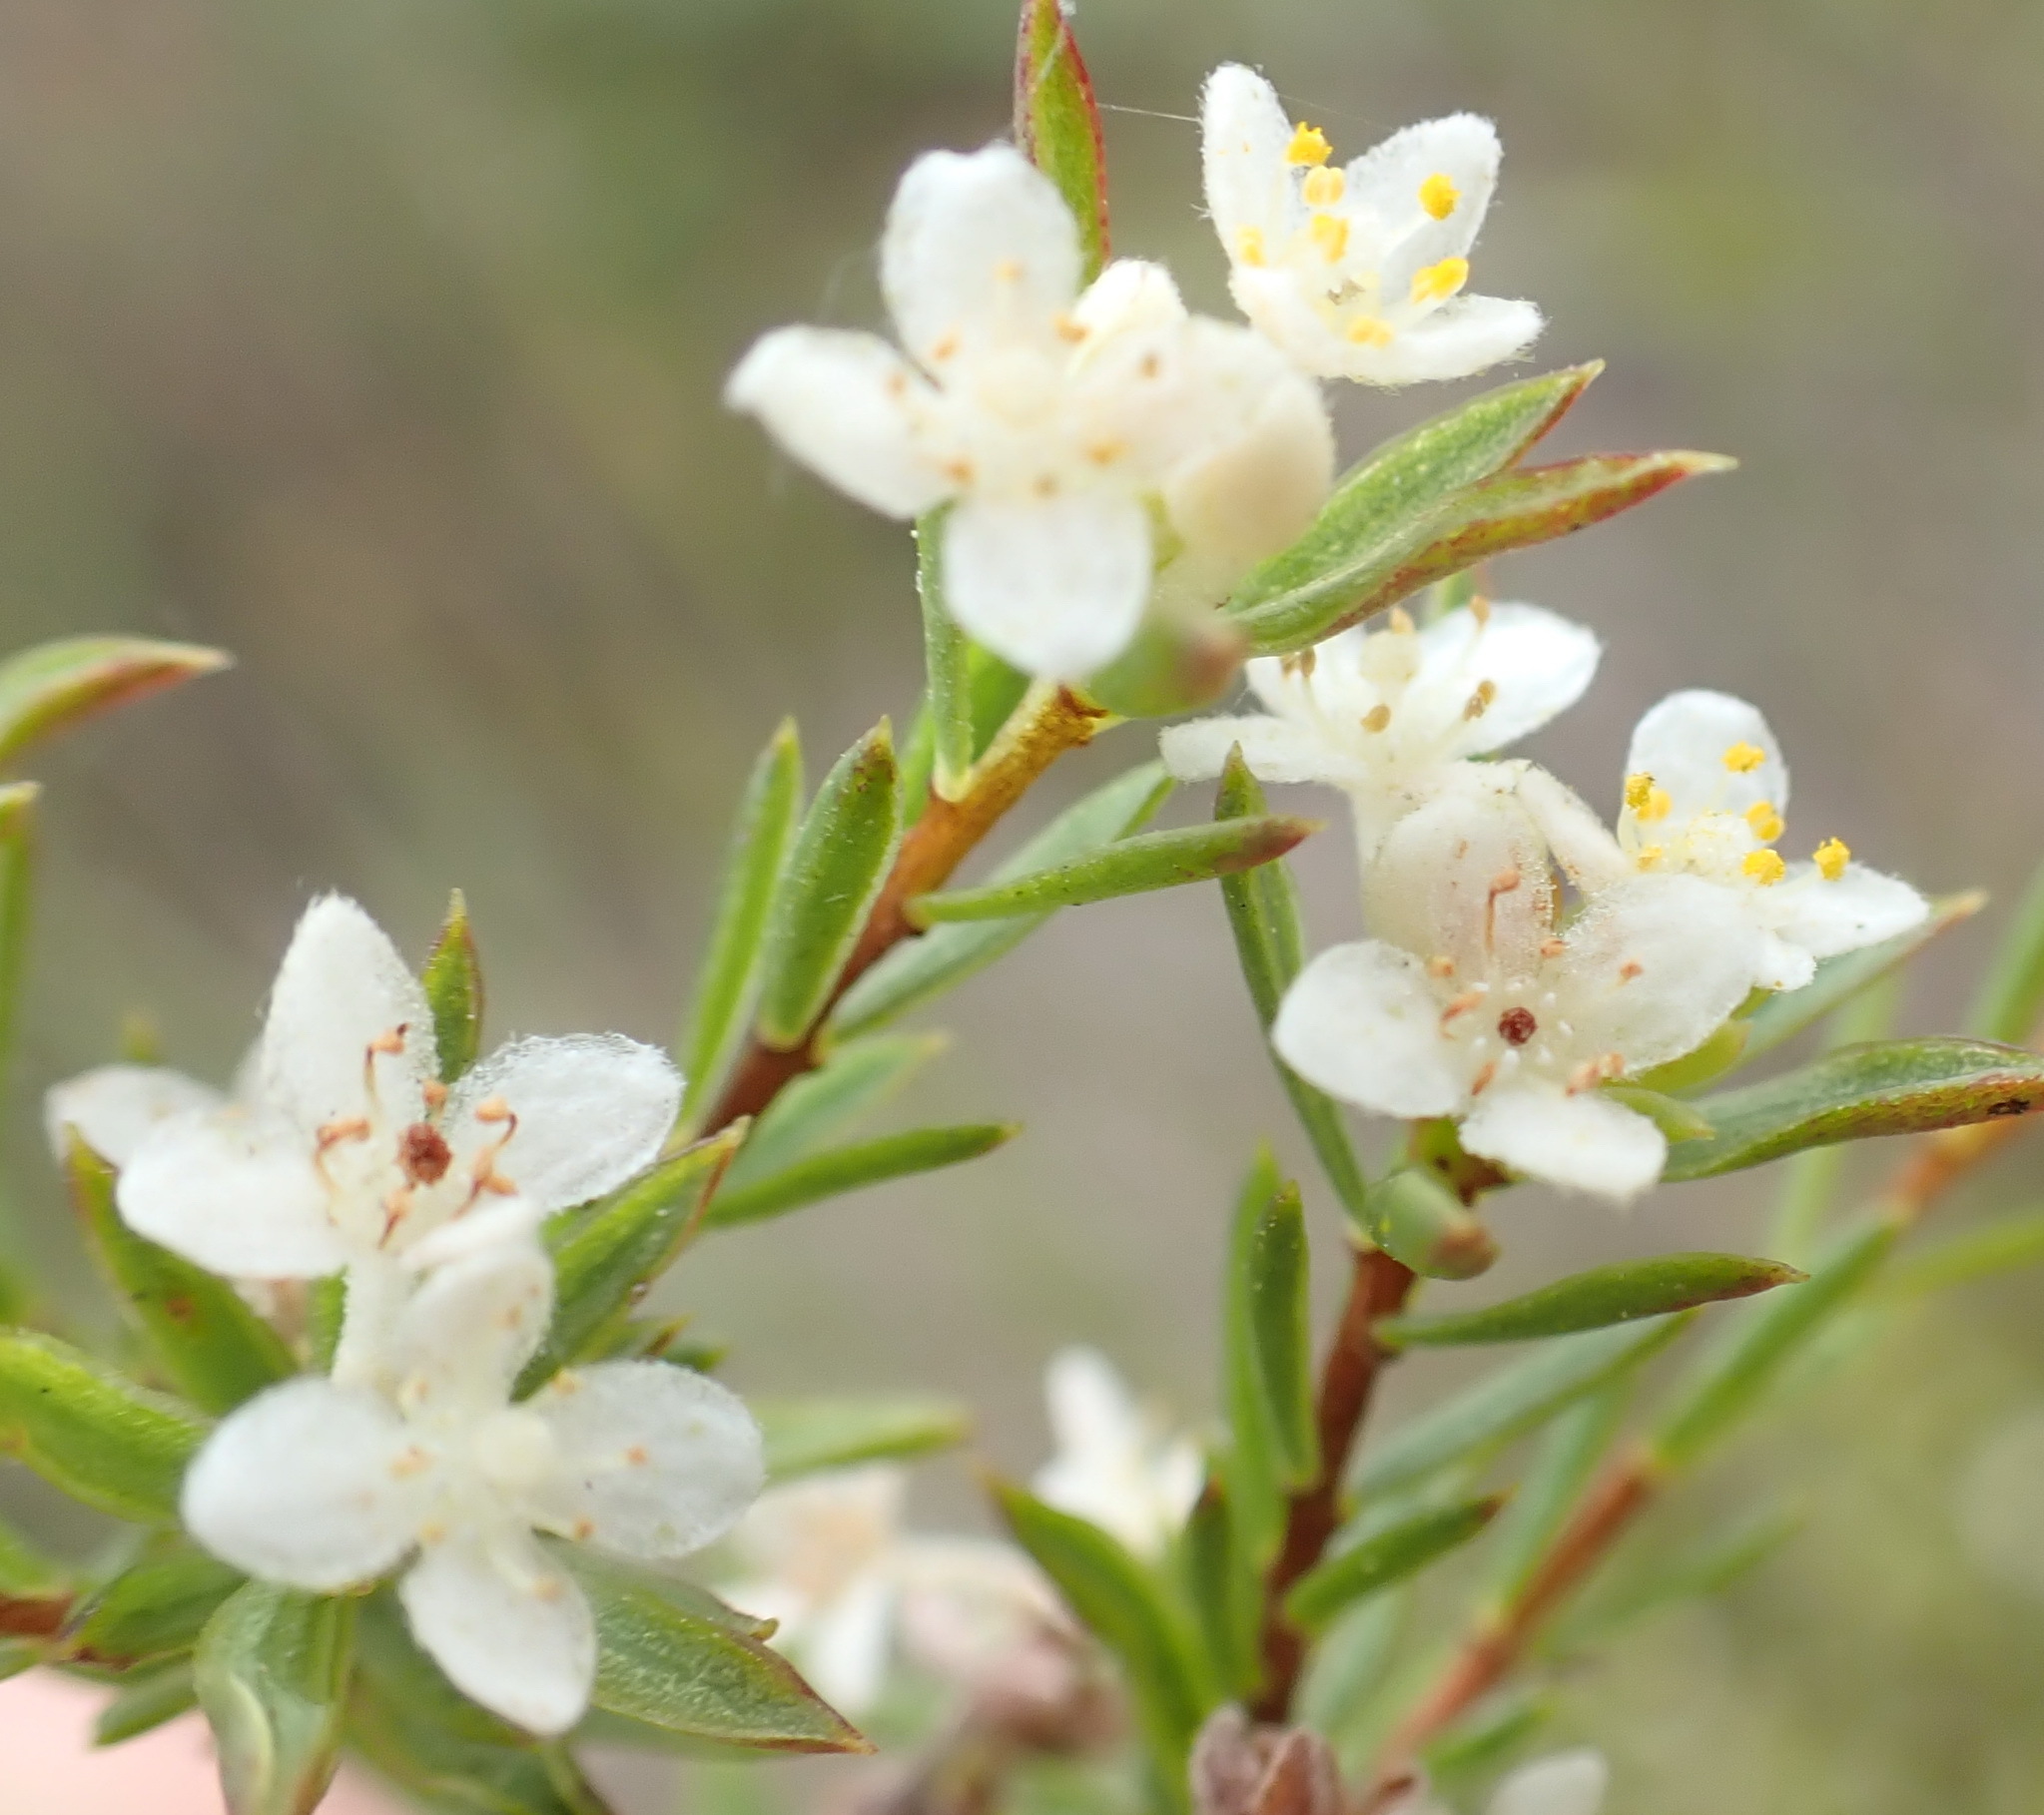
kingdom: Plantae
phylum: Tracheophyta
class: Magnoliopsida
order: Malvales
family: Thymelaeaceae
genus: Lachnaea
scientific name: Lachnaea diosmoides
